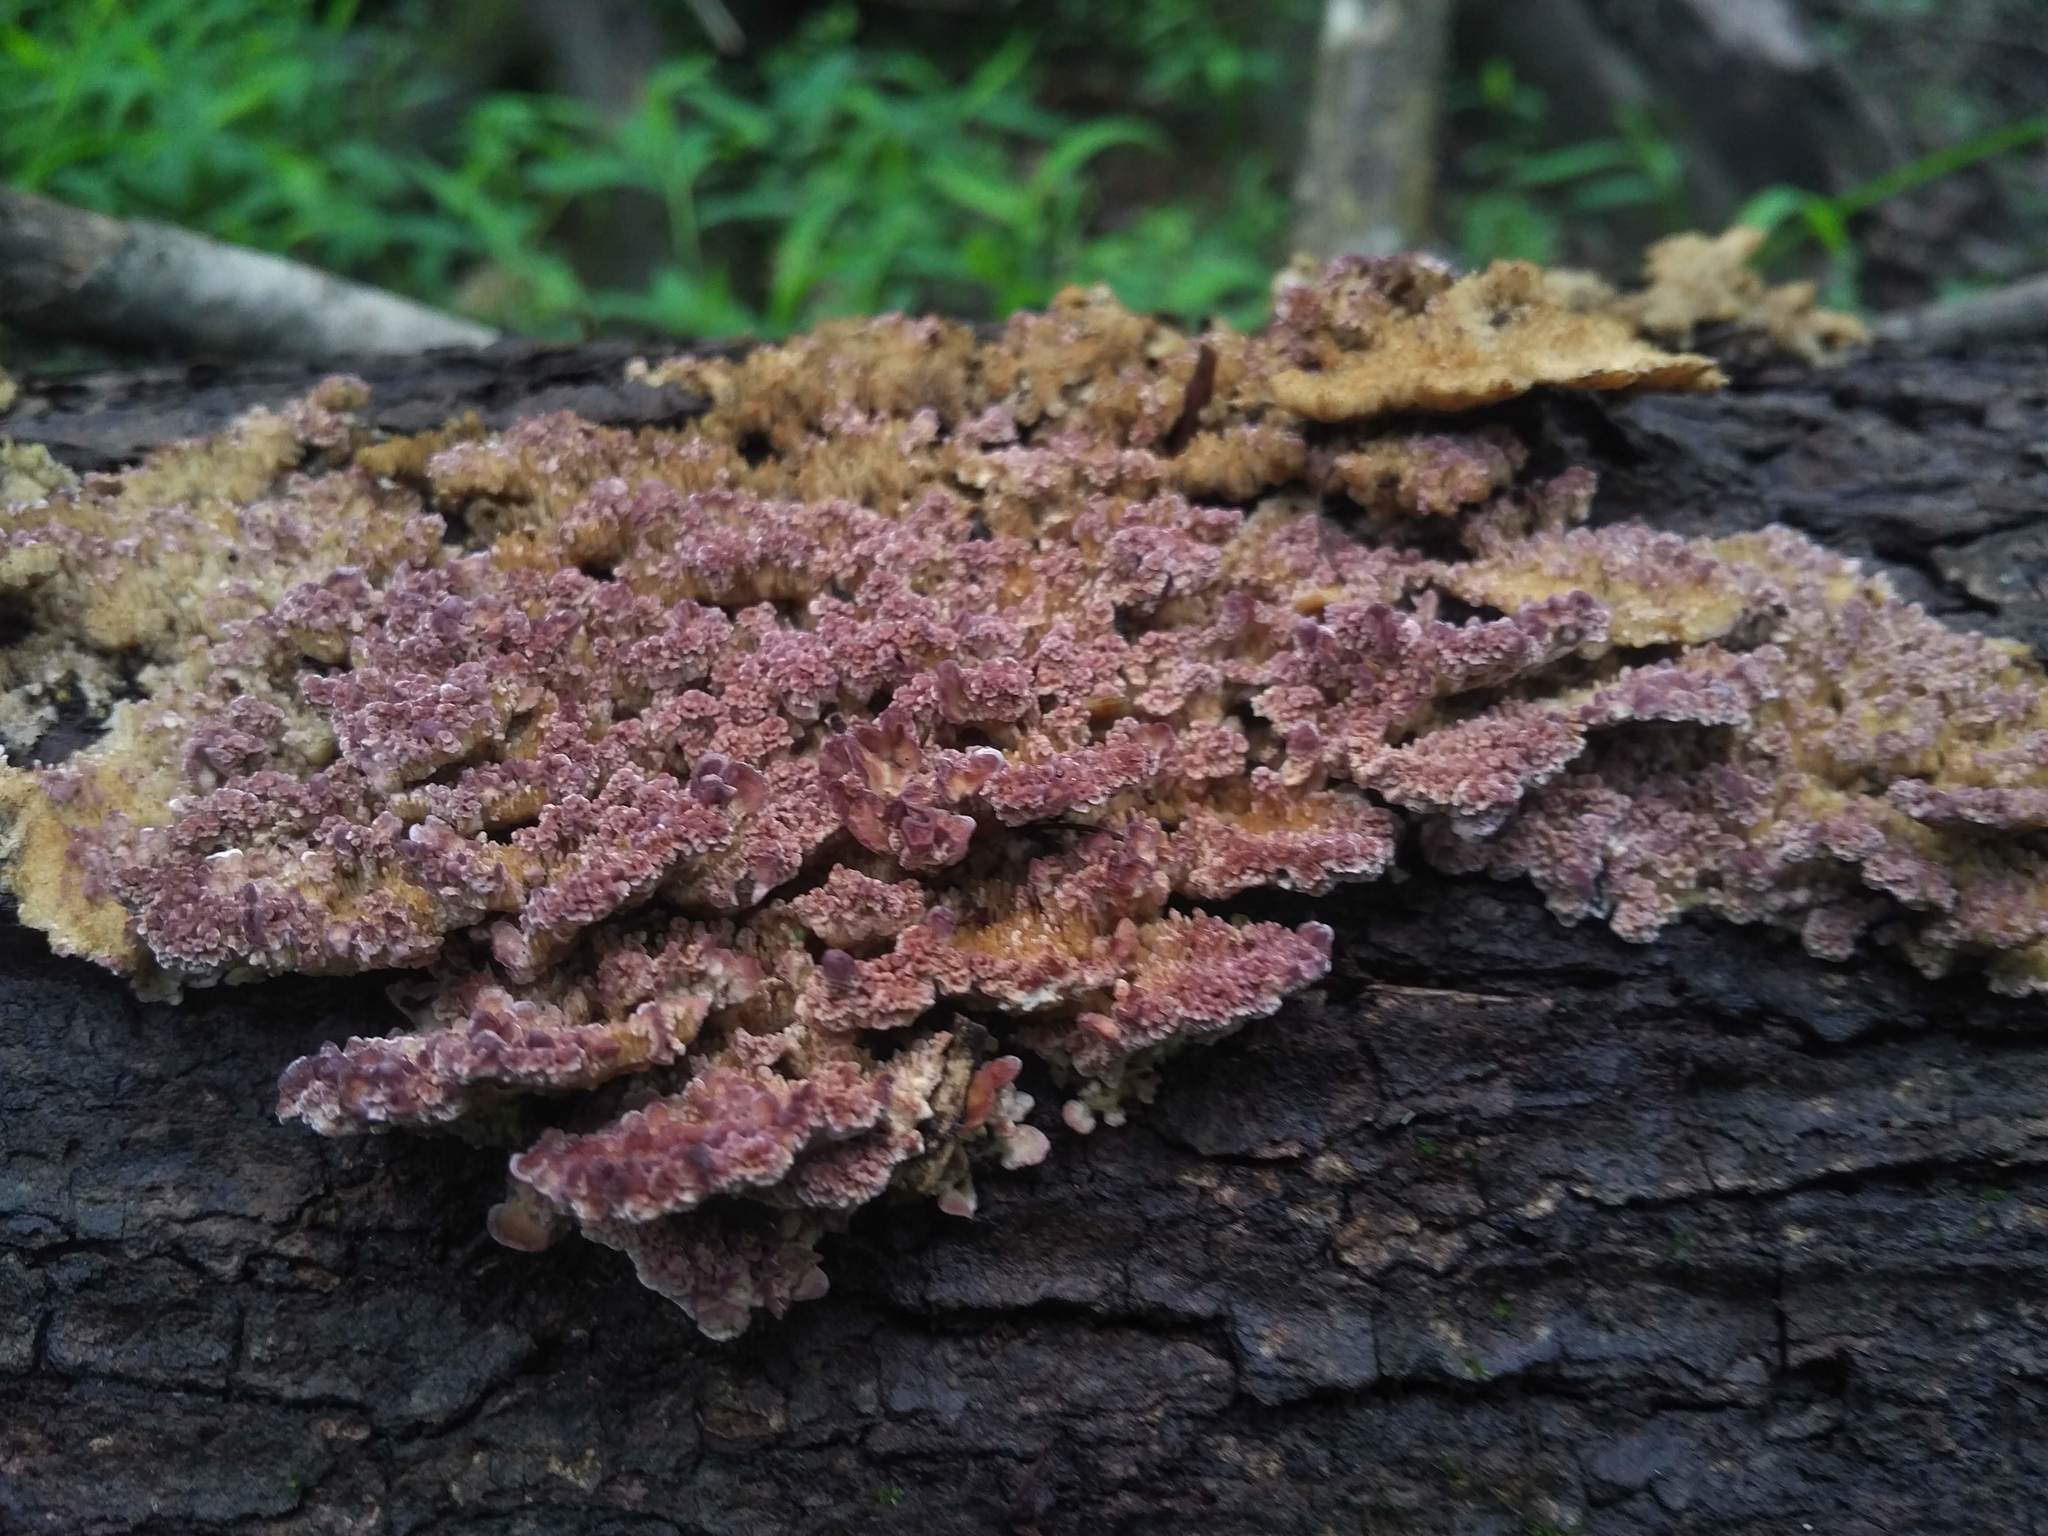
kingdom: Fungi
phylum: Basidiomycota
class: Agaricomycetes
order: Hymenochaetales
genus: Trichaptum
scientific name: Trichaptum biforme
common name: Violet-toothed polypore
